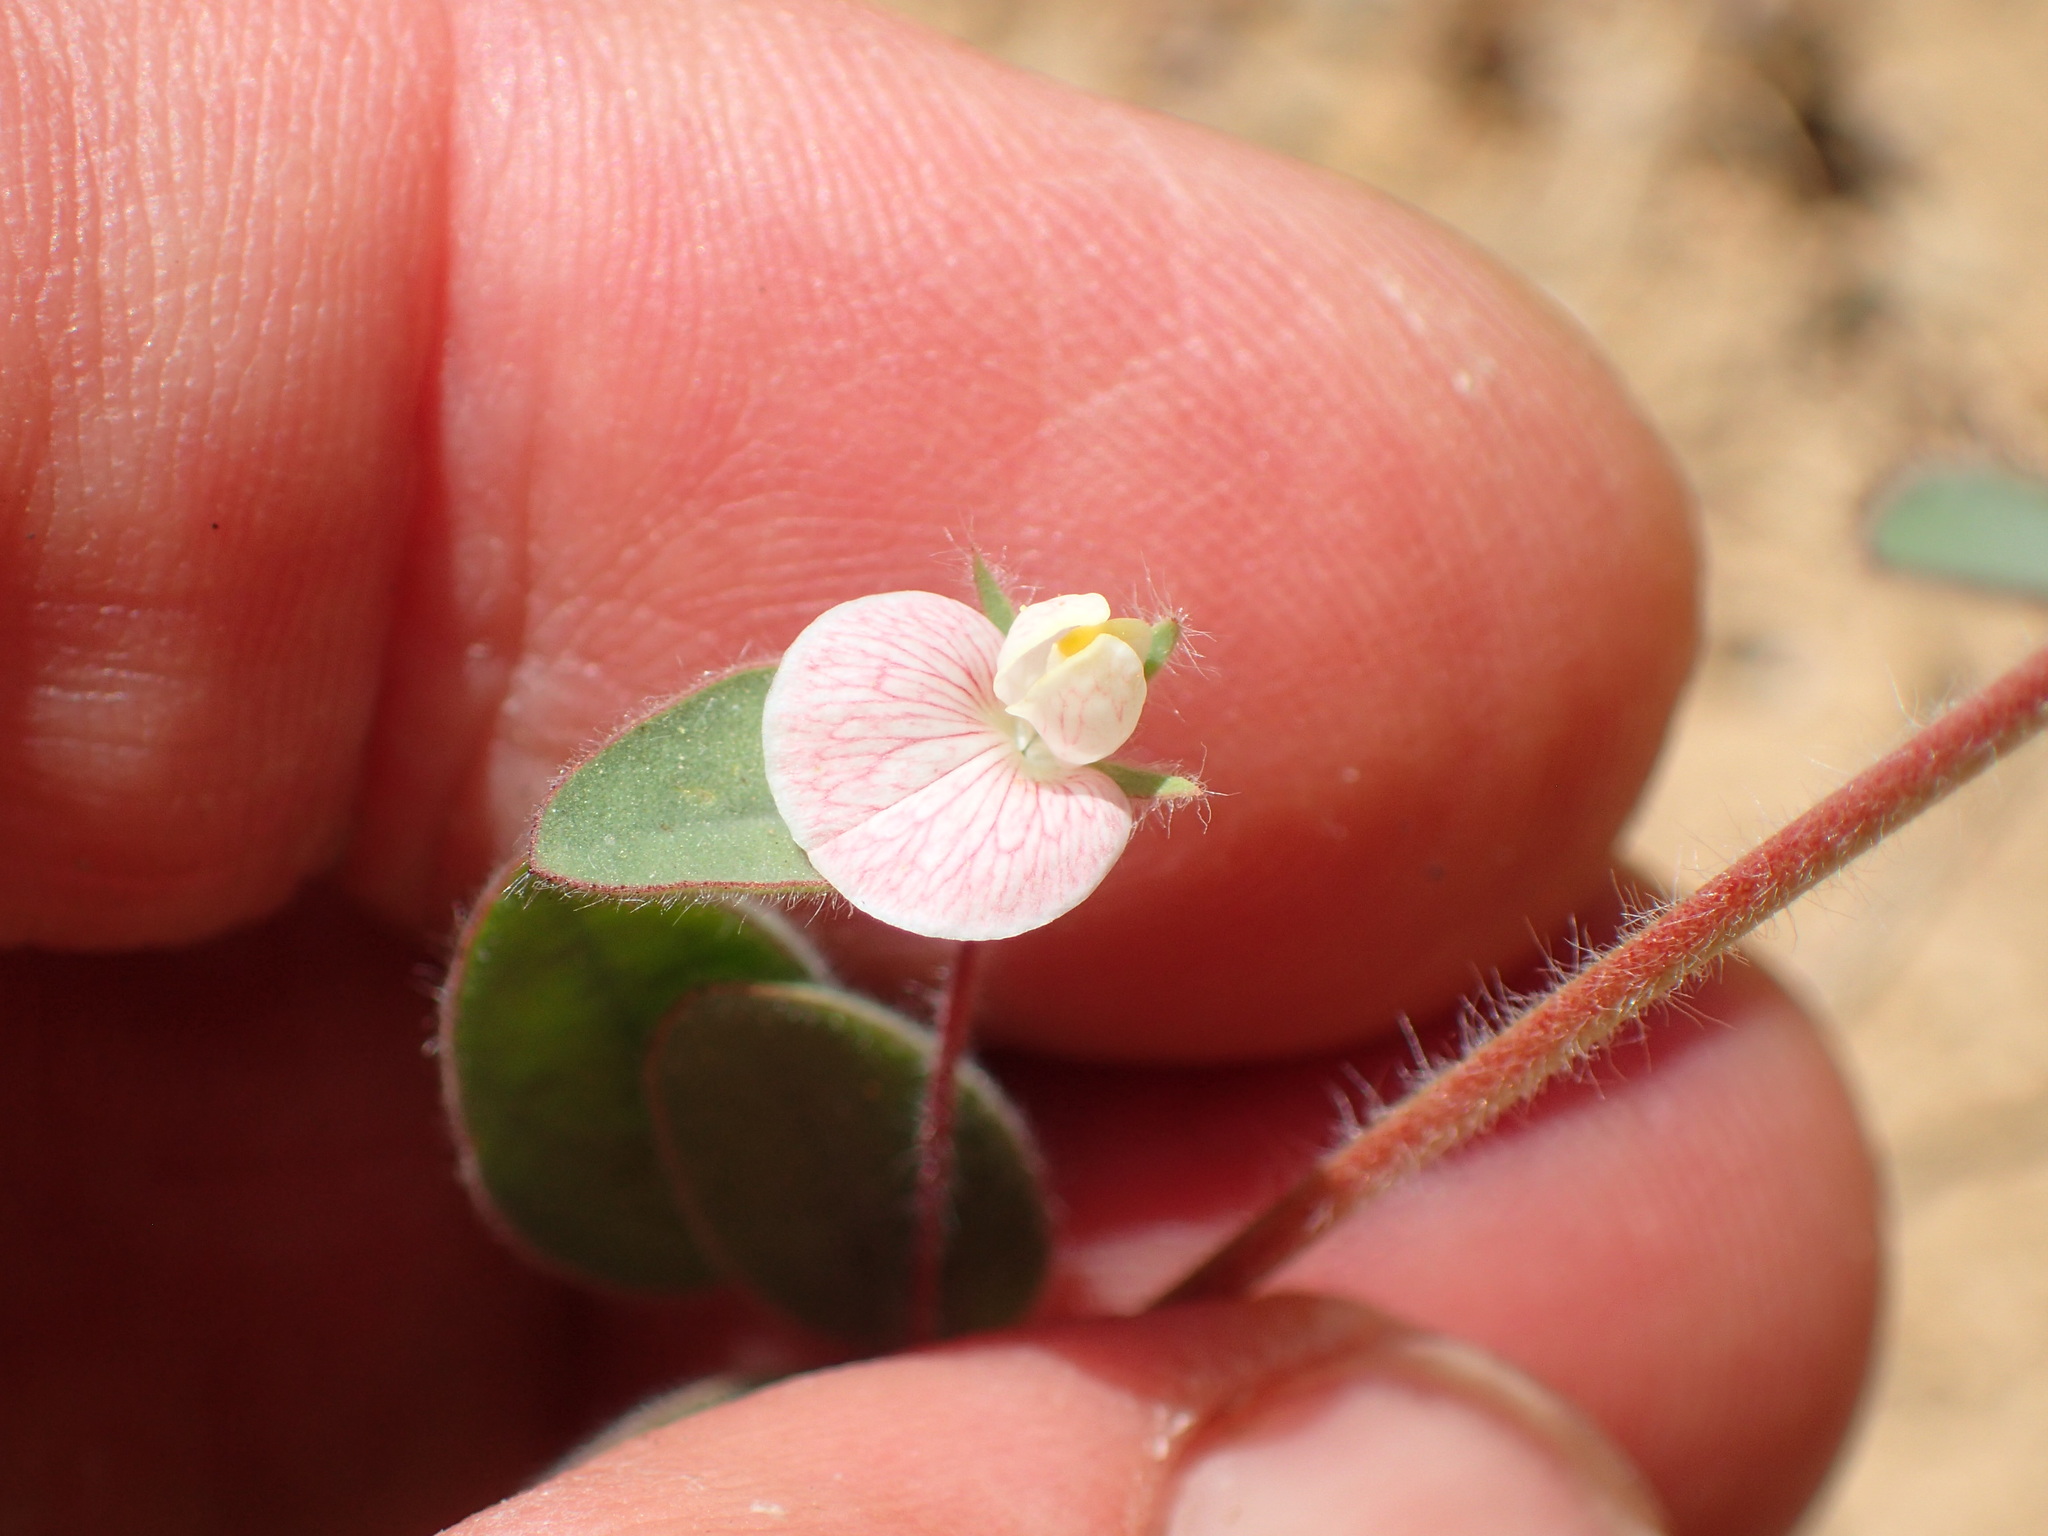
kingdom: Plantae
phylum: Tracheophyta
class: Magnoliopsida
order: Fabales
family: Fabaceae
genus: Acmispon
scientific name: Acmispon americanus
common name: American bird's-foot trefoil
